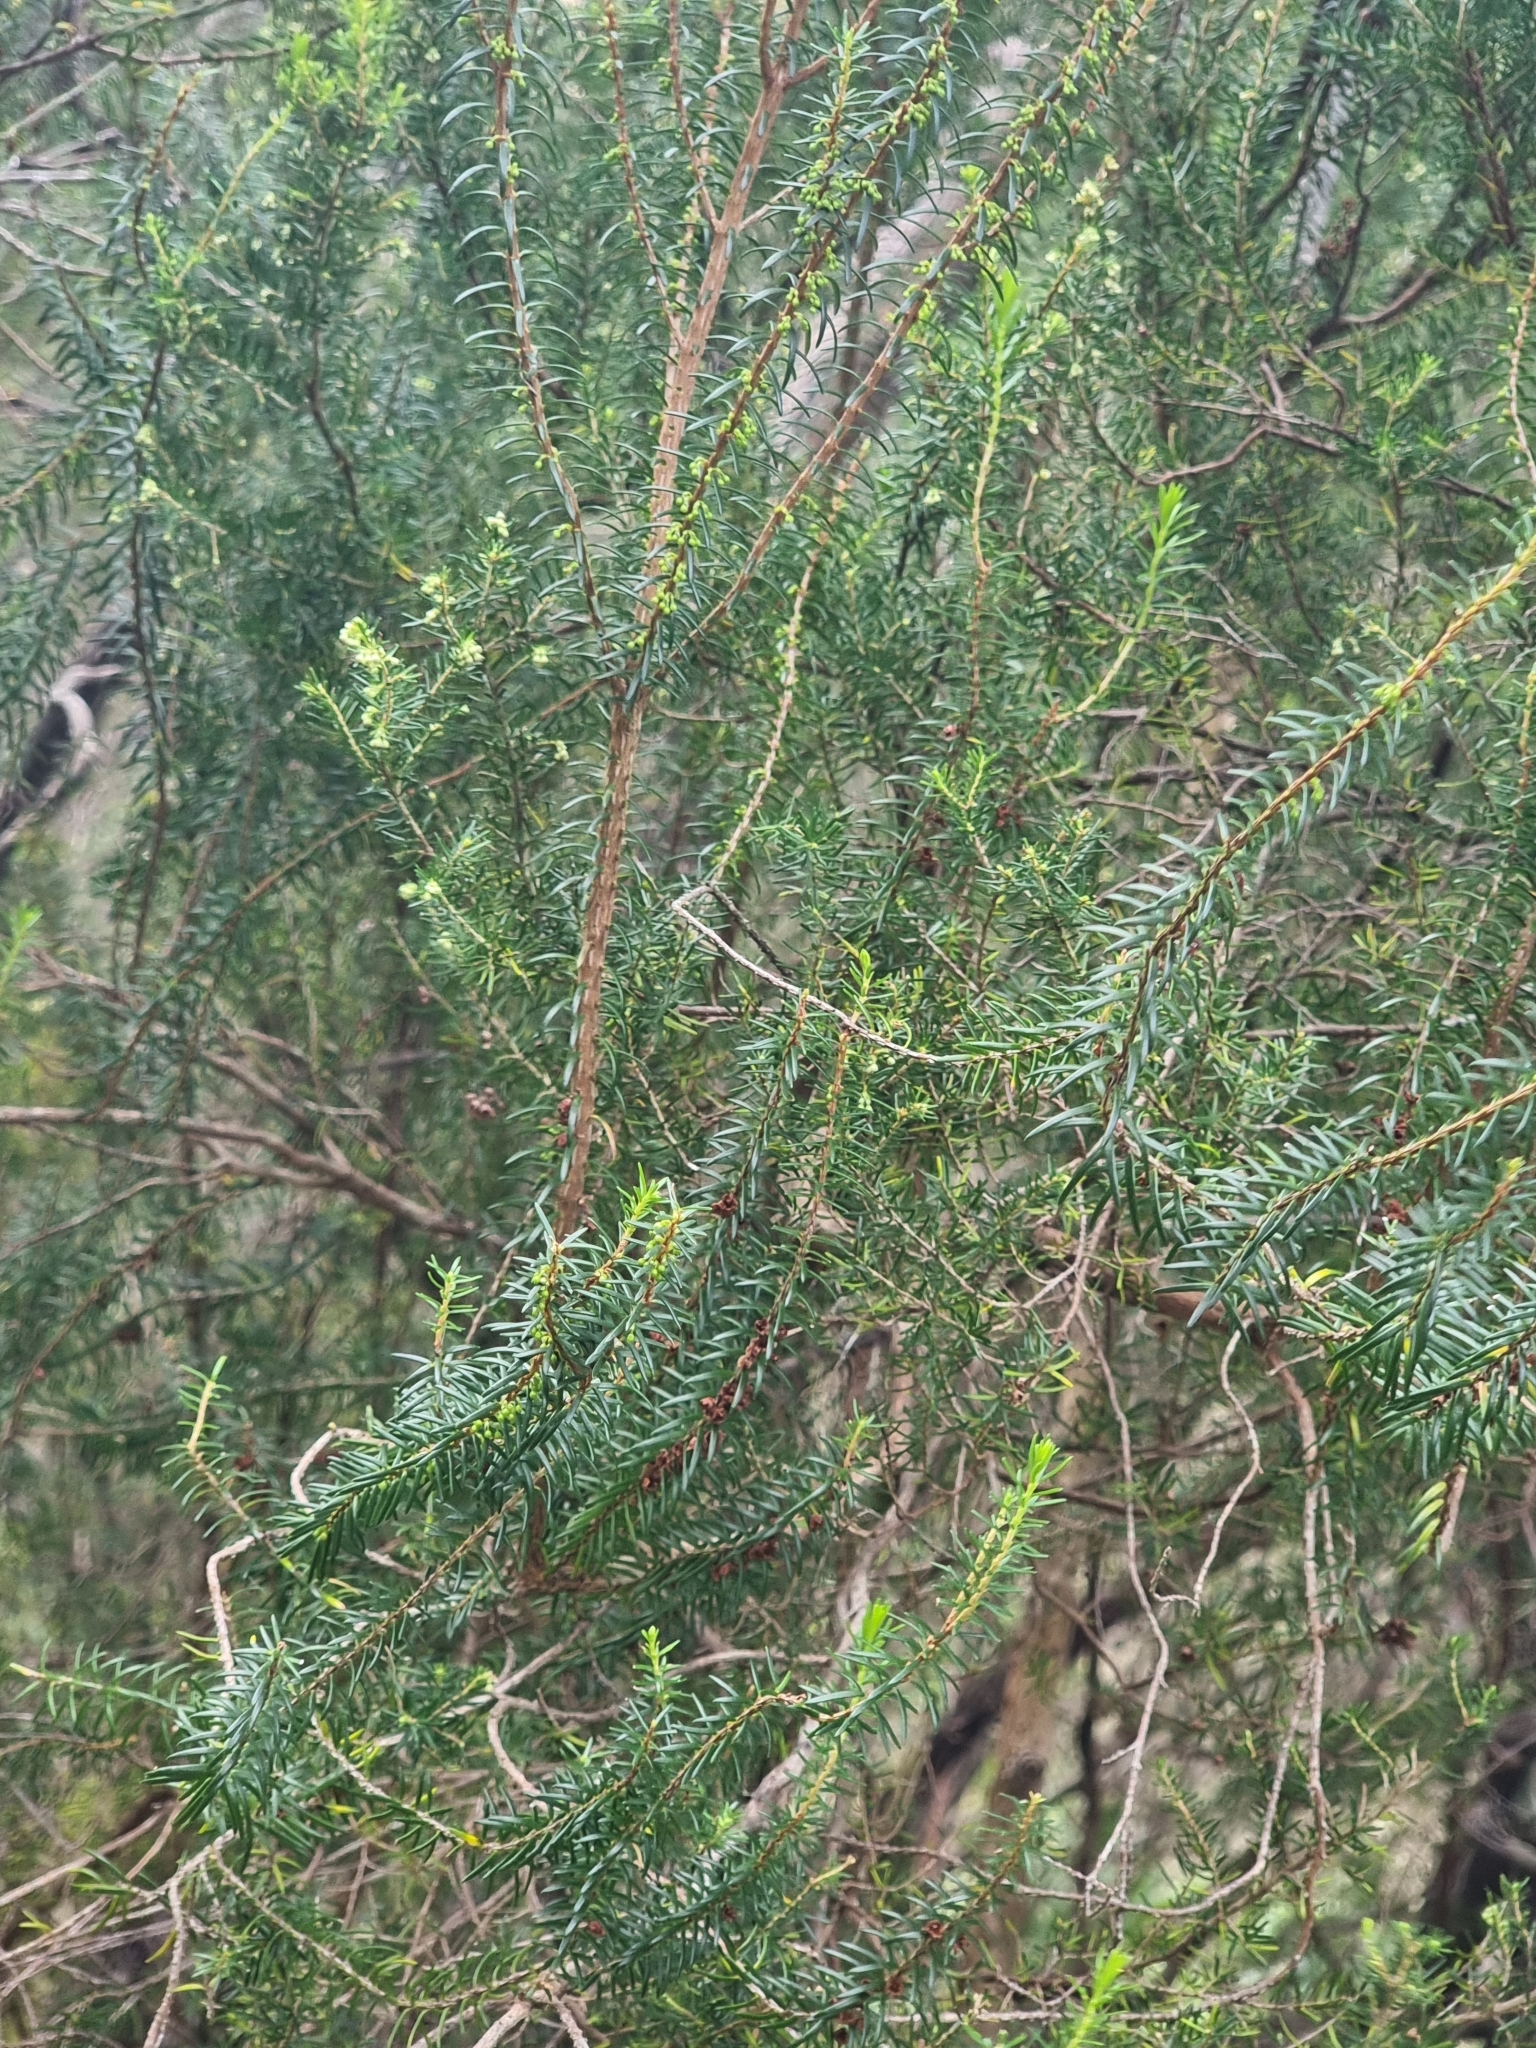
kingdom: Plantae
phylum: Tracheophyta
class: Magnoliopsida
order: Ericales
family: Ericaceae
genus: Erica
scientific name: Erica platycodon
